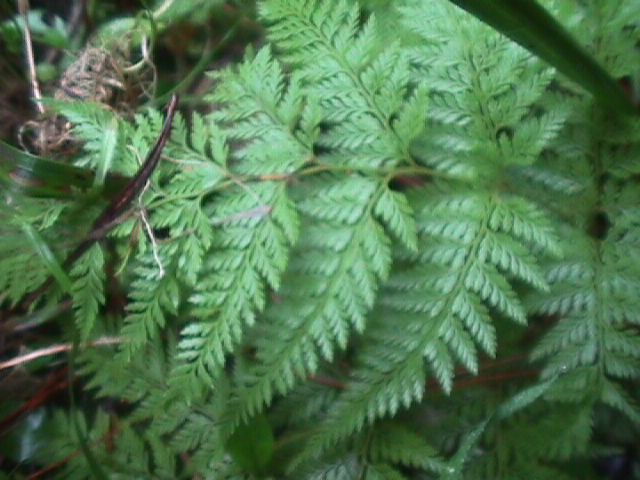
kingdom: Plantae
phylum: Tracheophyta
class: Polypodiopsida
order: Polypodiales
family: Dennstaedtiaceae
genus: Paesia
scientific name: Paesia scaberula
